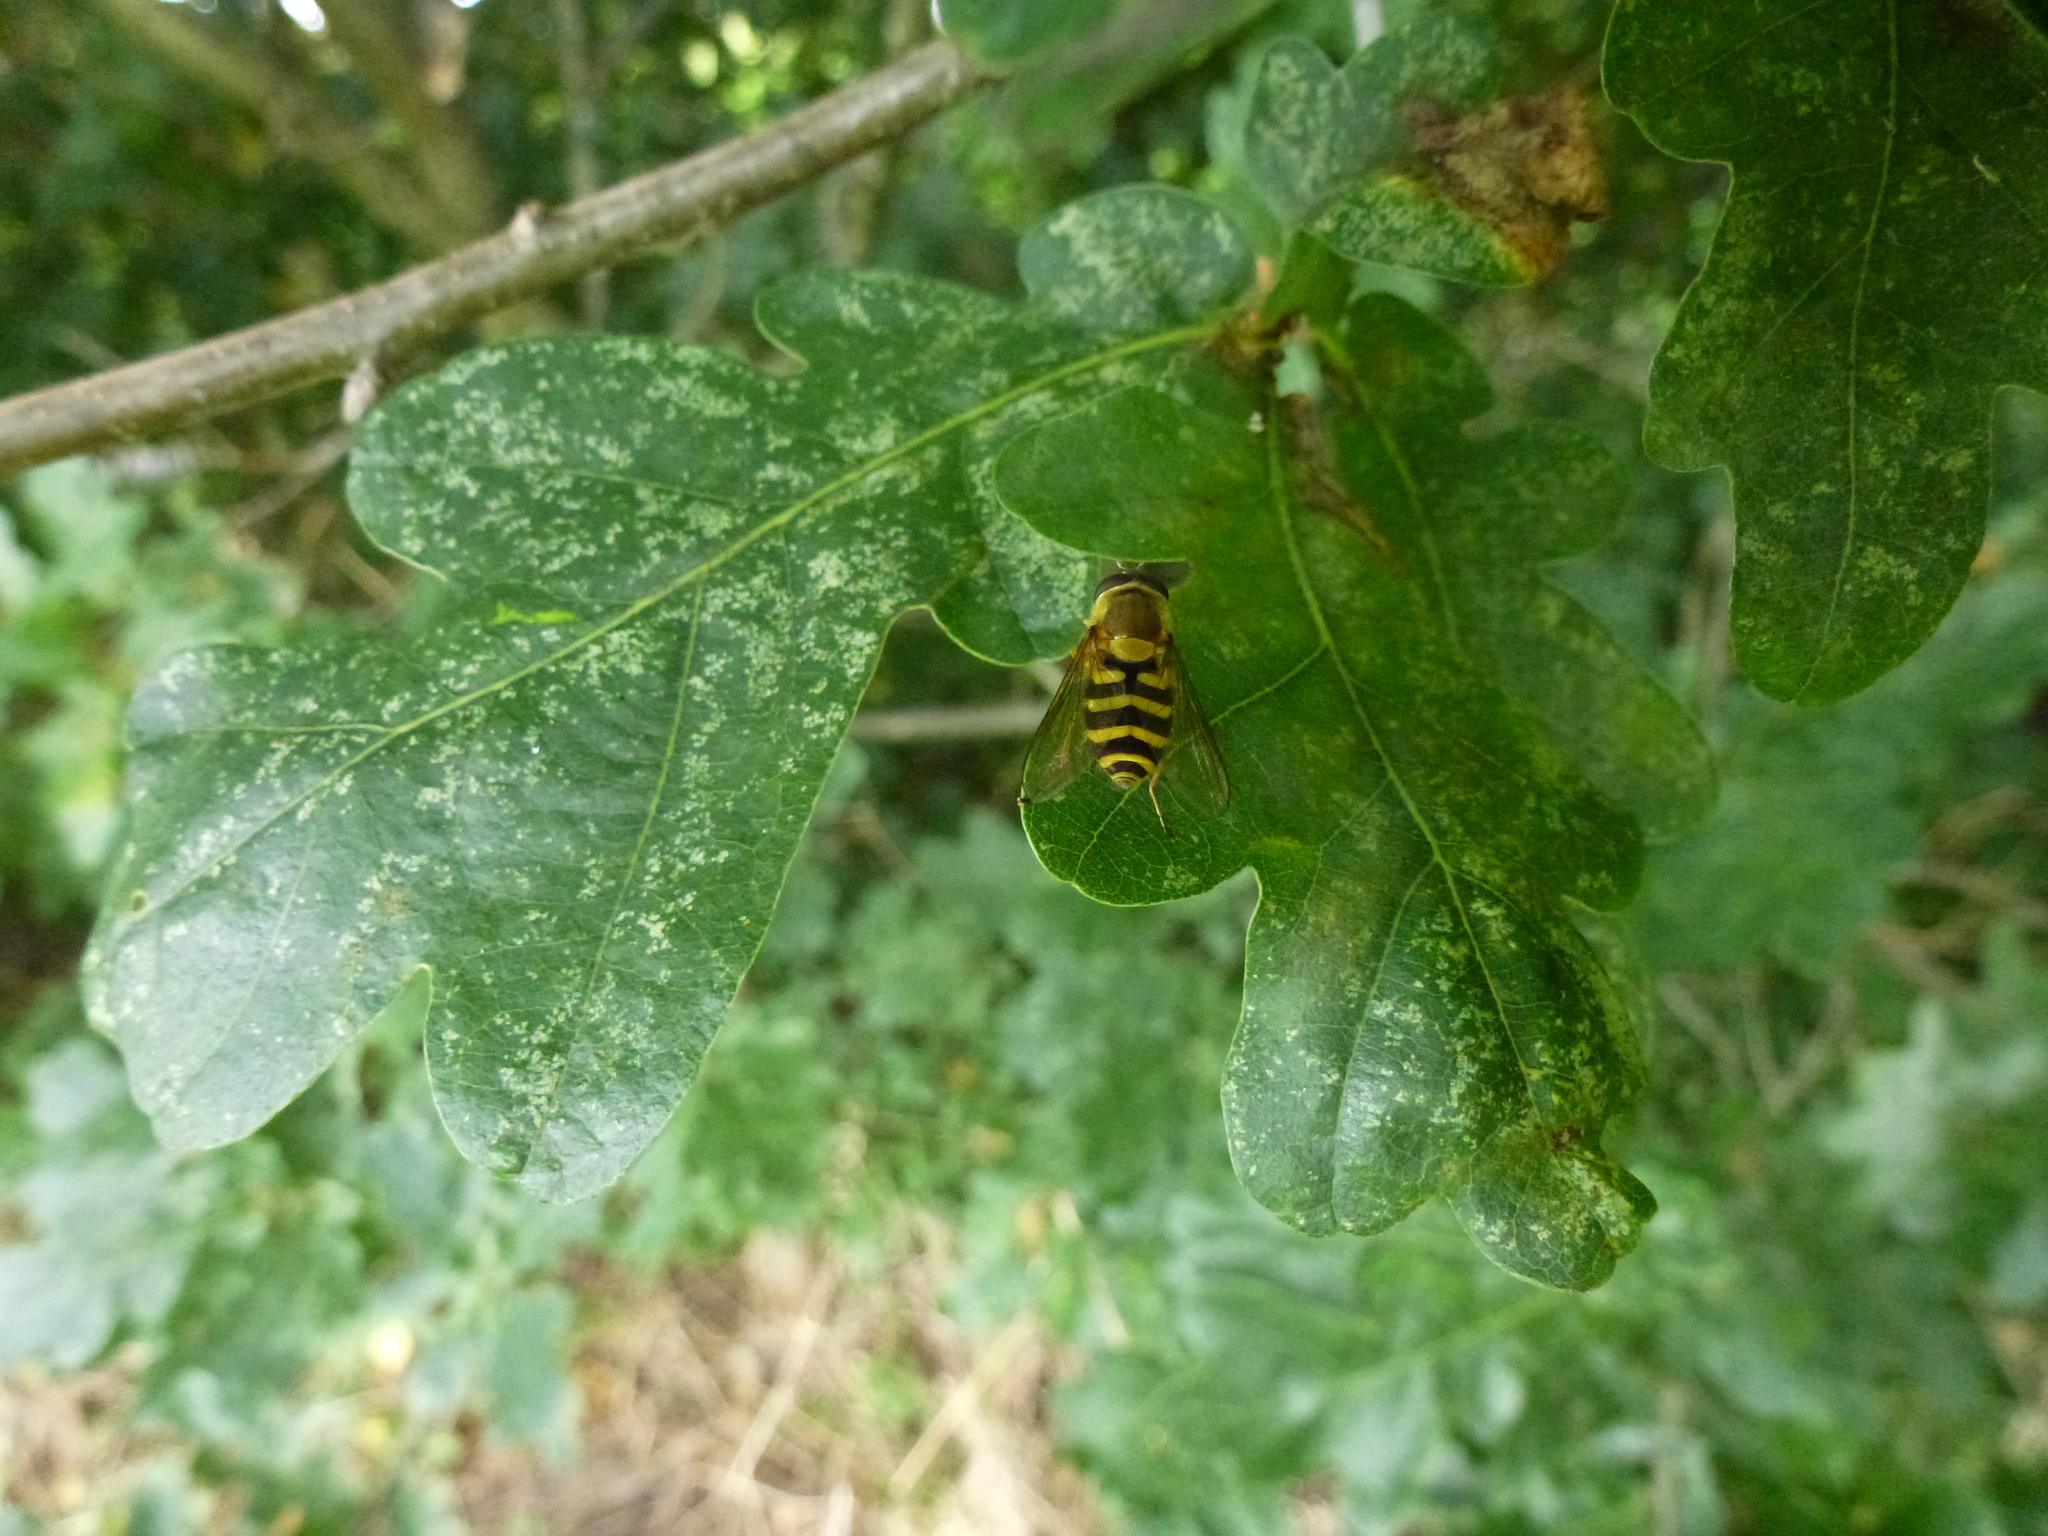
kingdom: Animalia
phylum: Arthropoda
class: Insecta
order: Diptera
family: Syrphidae
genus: Syrphus
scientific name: Syrphus
